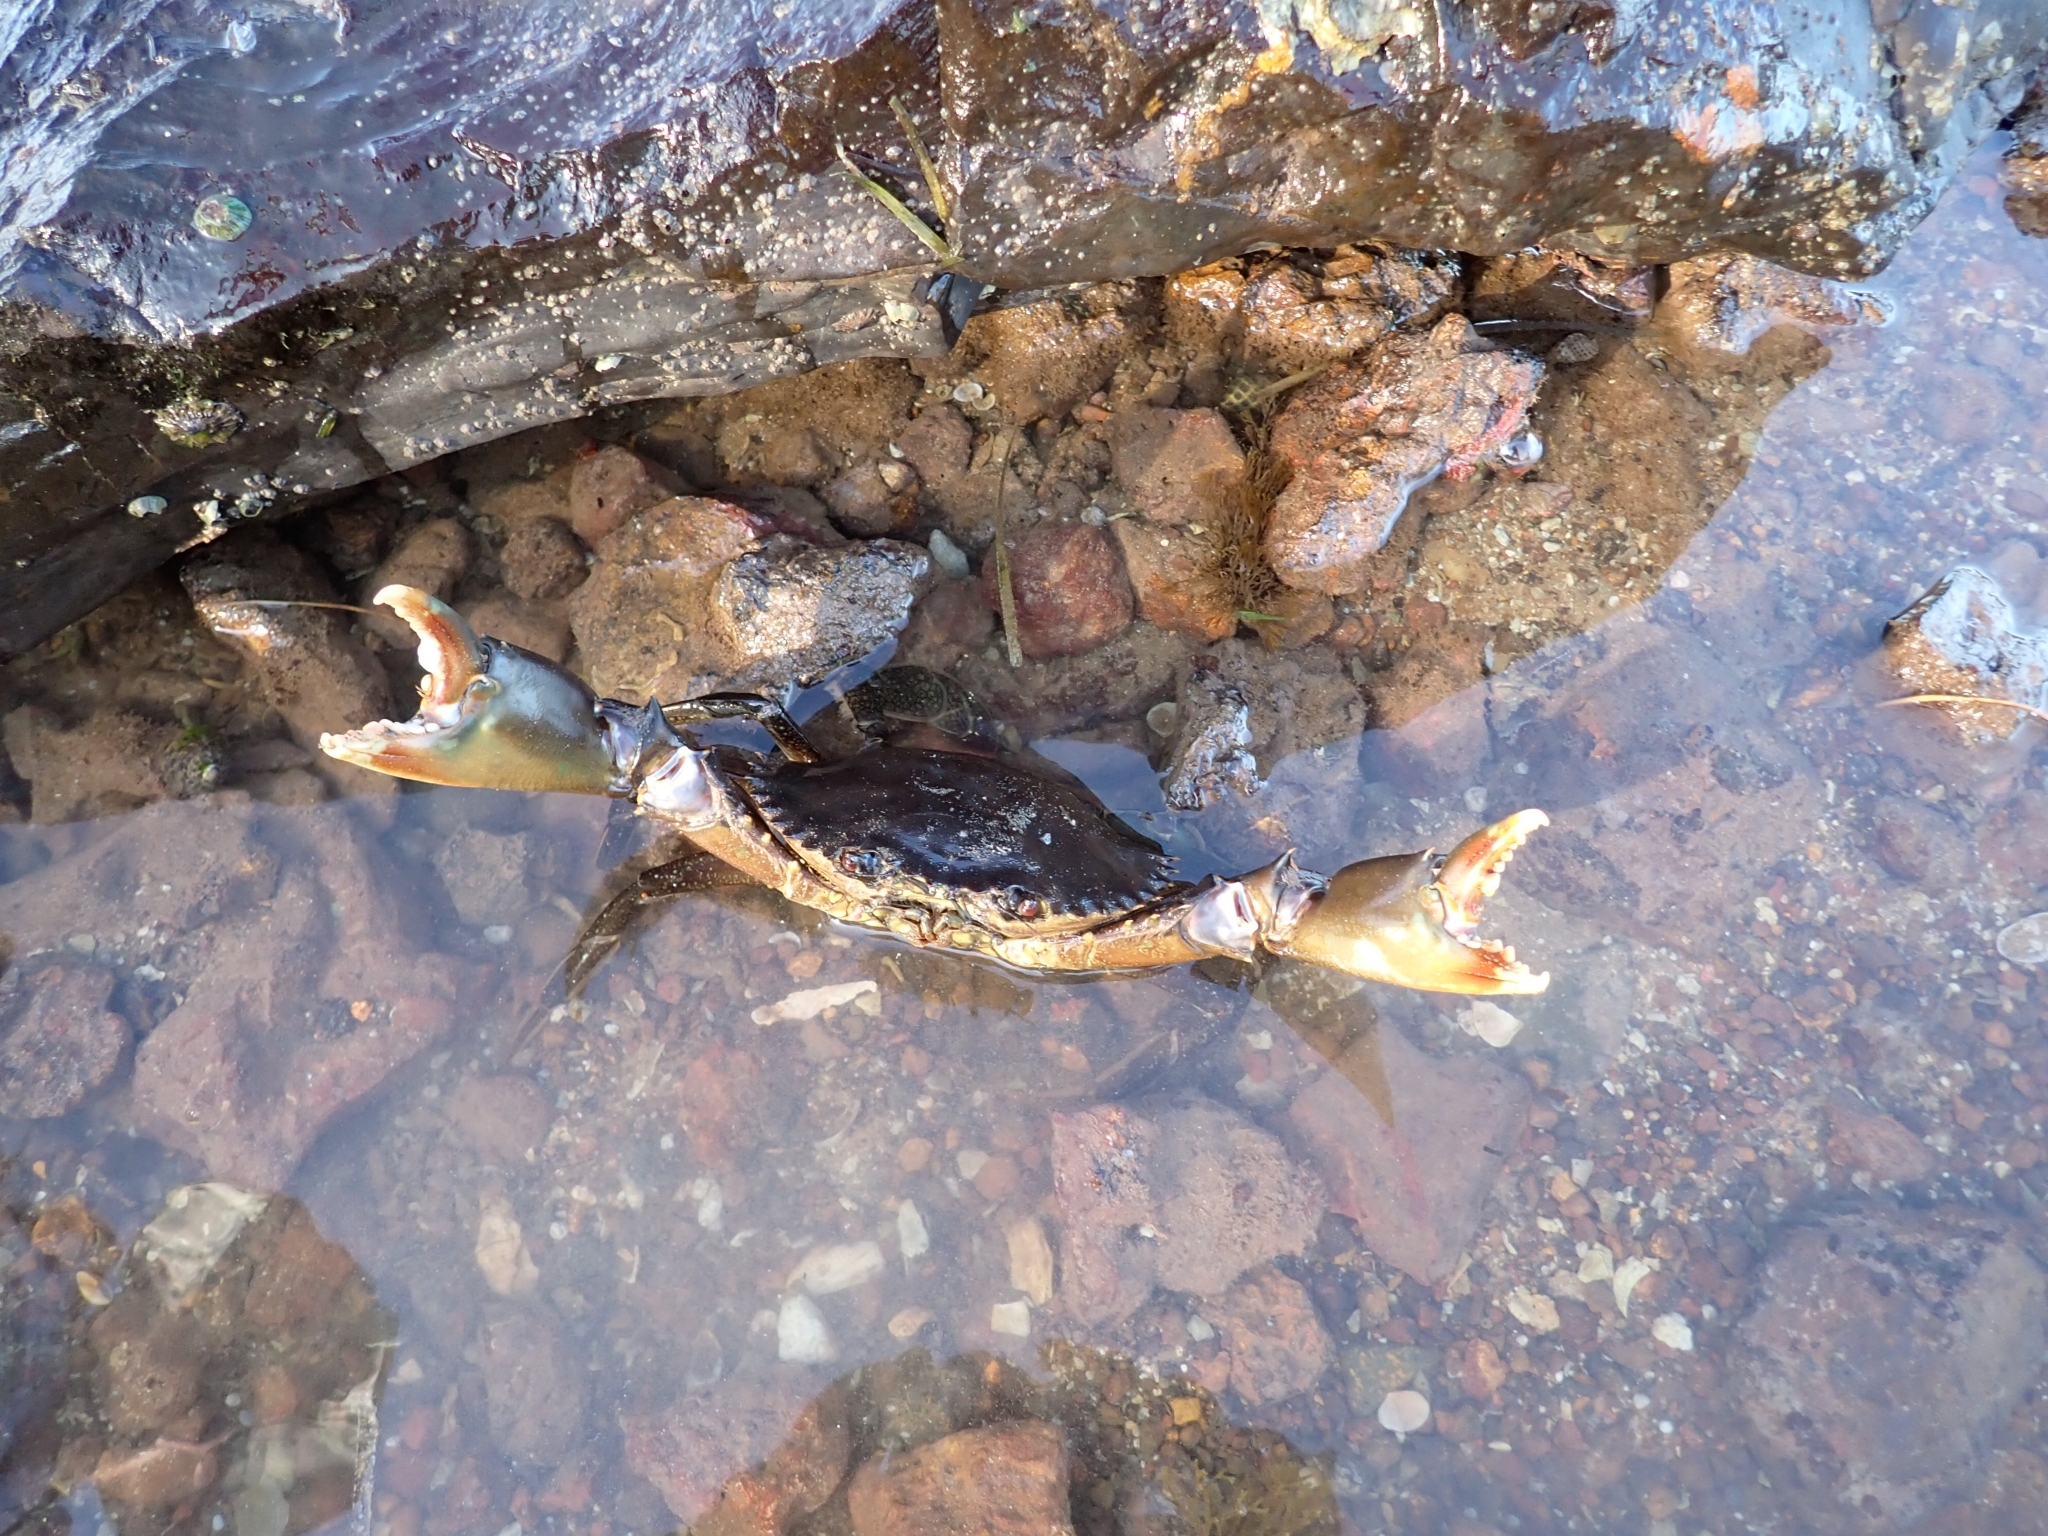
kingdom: Animalia
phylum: Arthropoda
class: Malacostraca
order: Decapoda
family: Portunidae
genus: Scylla
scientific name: Scylla serrata
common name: Giant mud crab
